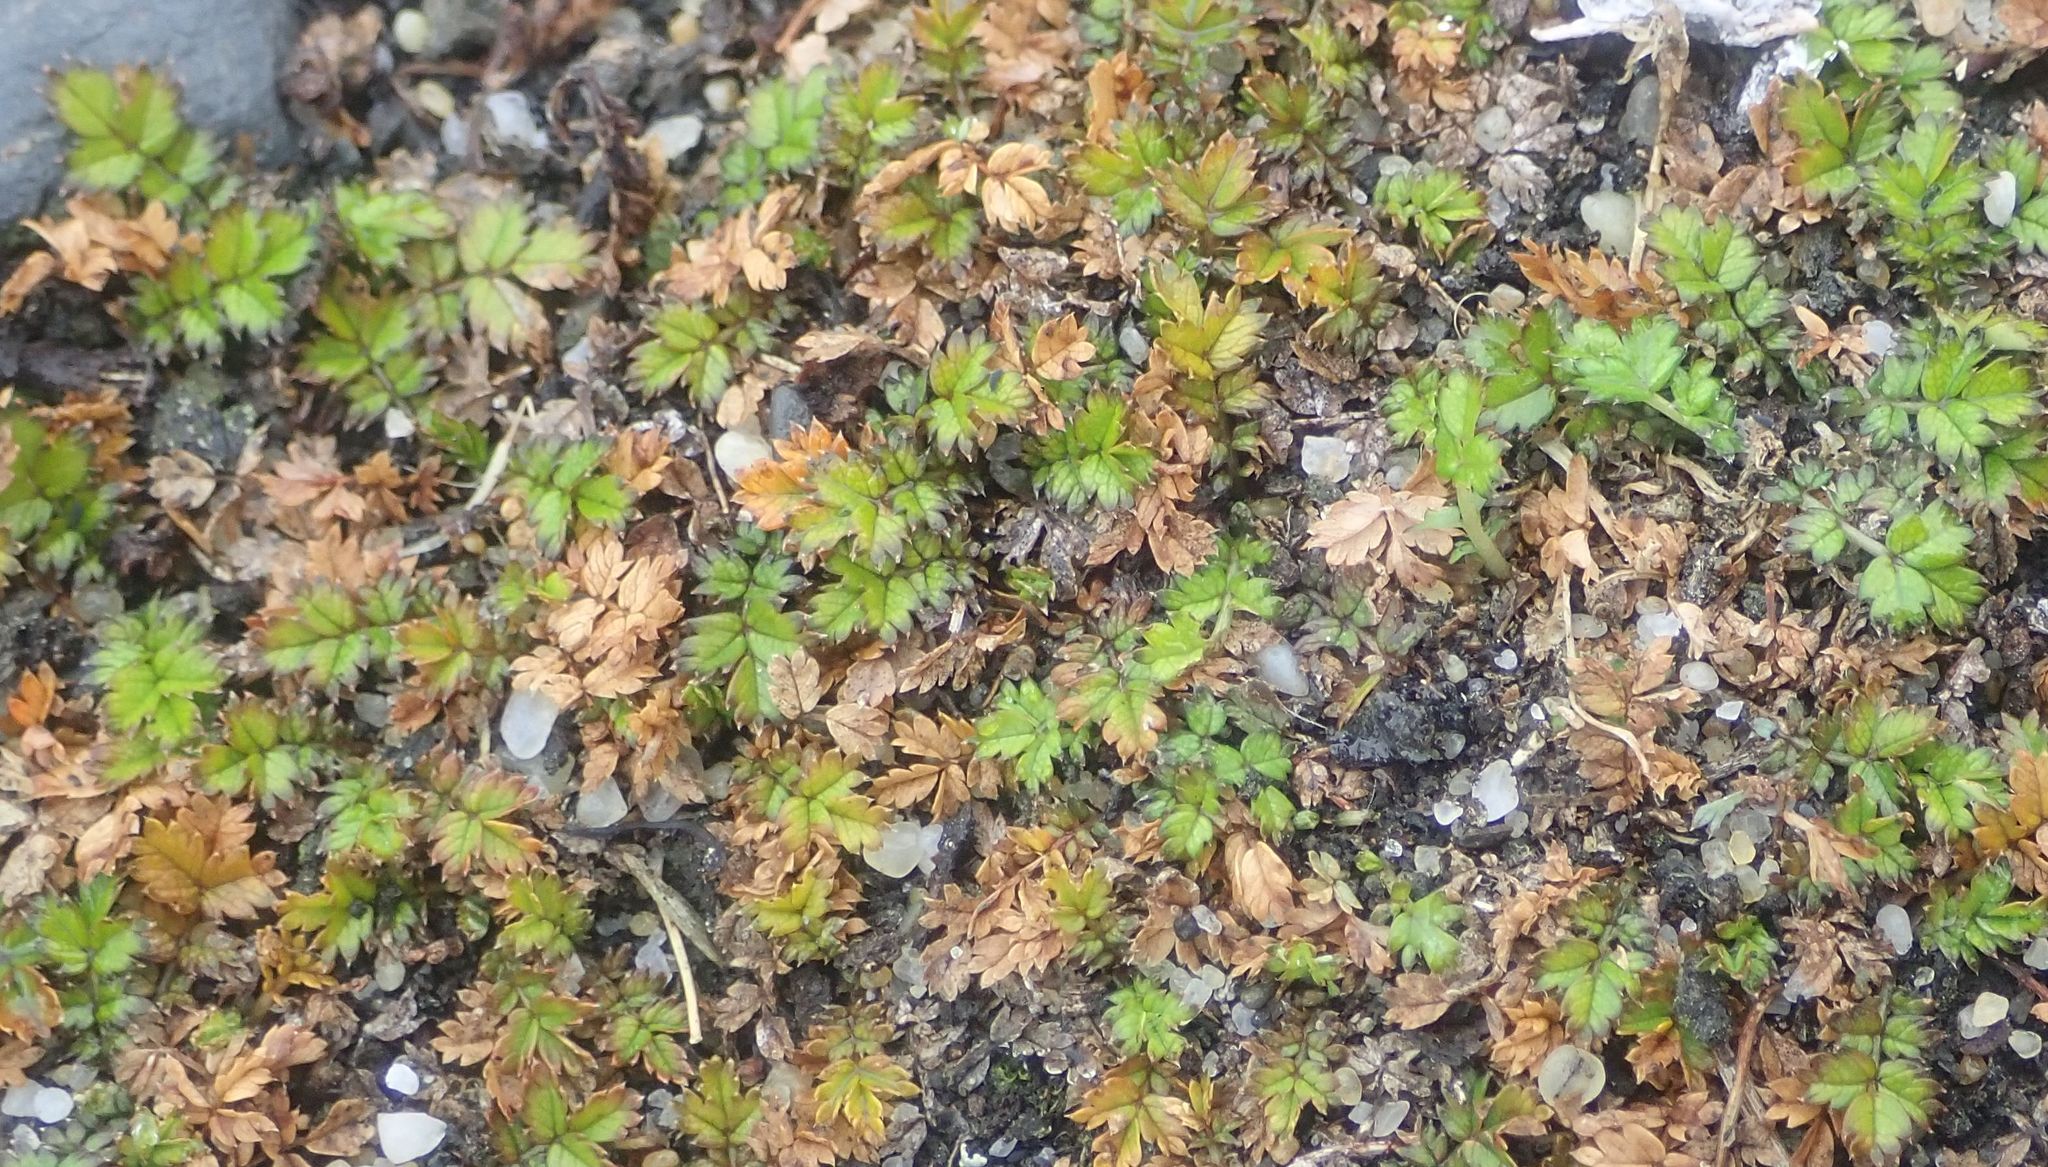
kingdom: Plantae
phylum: Tracheophyta
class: Magnoliopsida
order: Rosales
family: Rosaceae
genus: Acaena
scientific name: Acaena microphylla
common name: New zealand-bur
